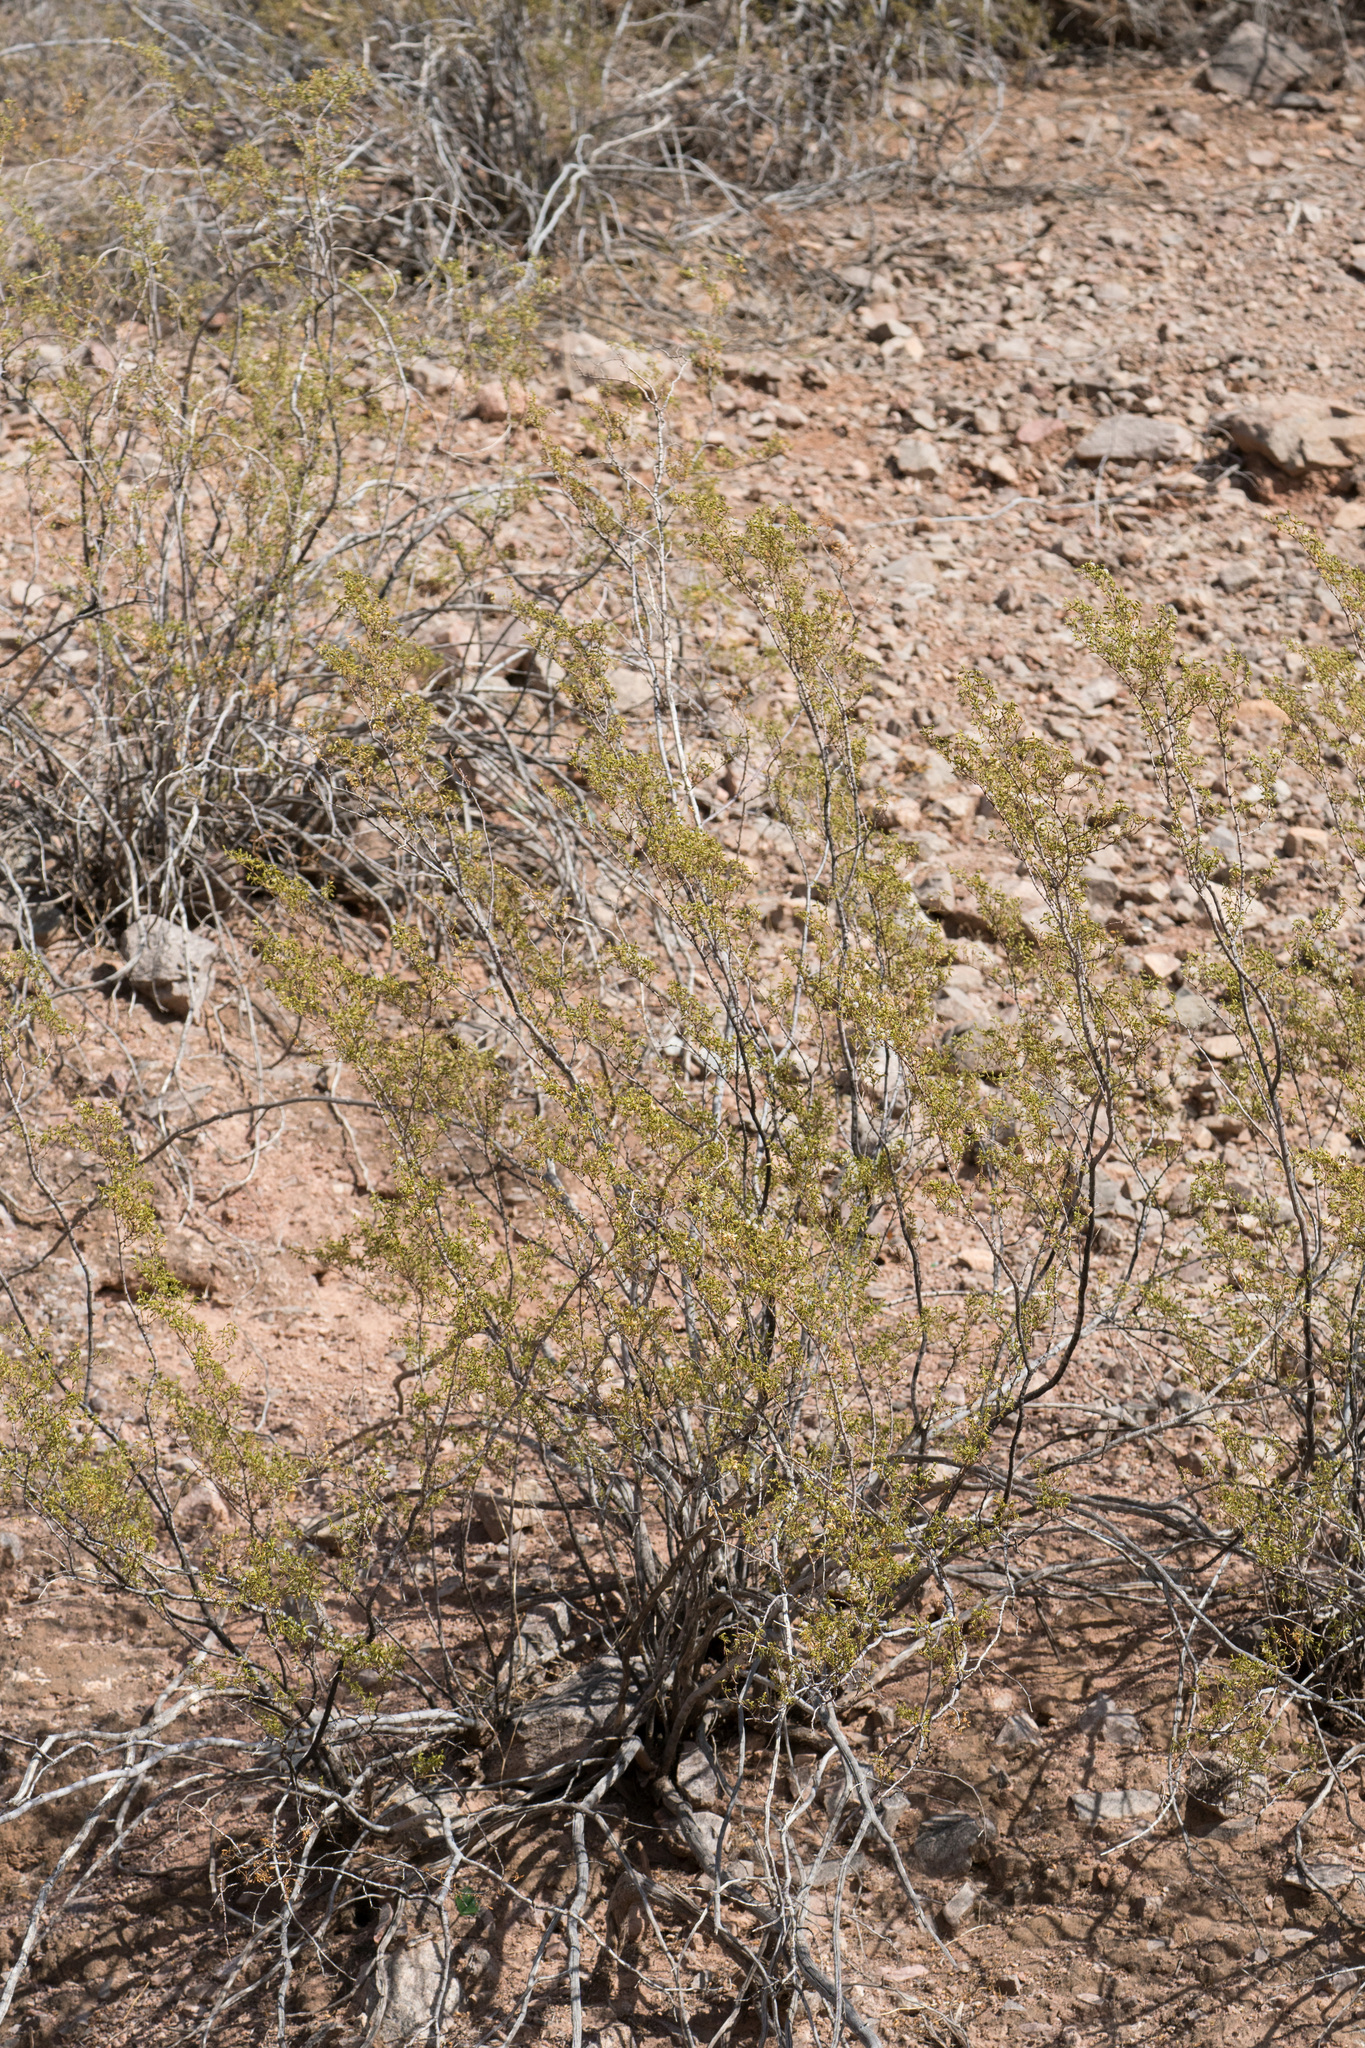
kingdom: Plantae
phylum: Tracheophyta
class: Magnoliopsida
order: Zygophyllales
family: Zygophyllaceae
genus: Larrea
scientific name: Larrea tridentata
